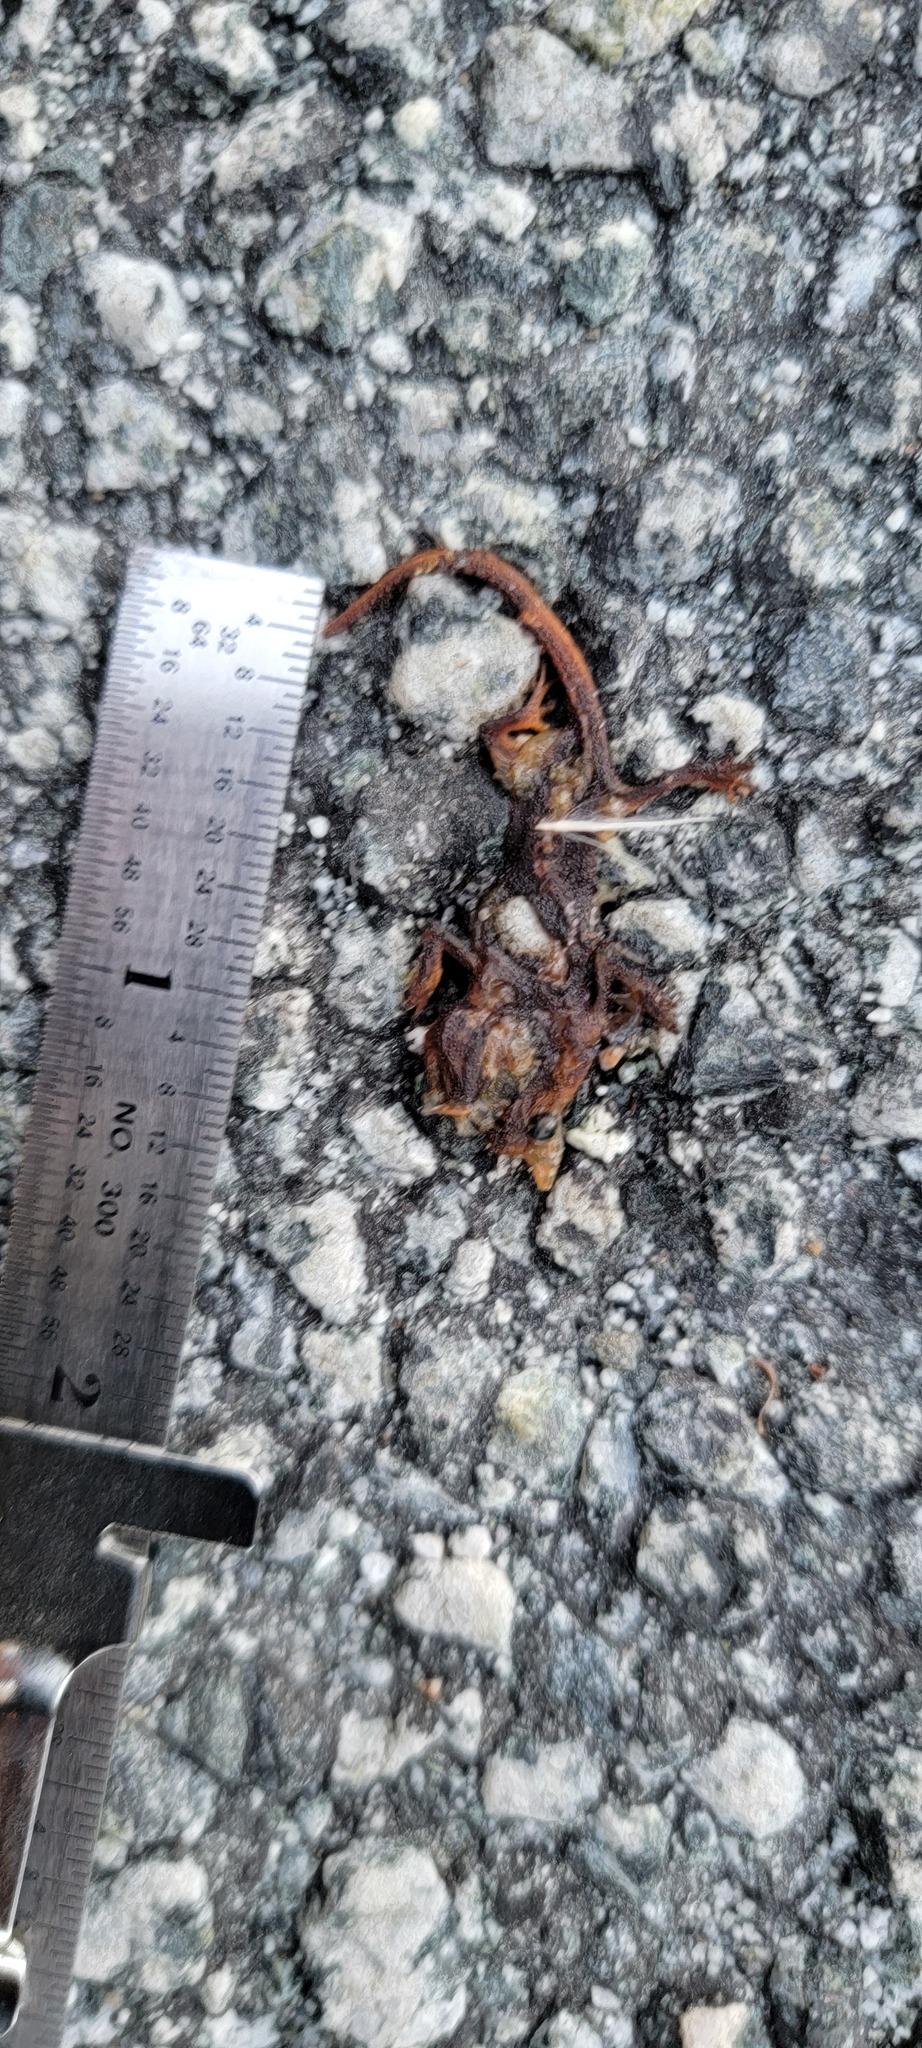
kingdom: Animalia
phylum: Chordata
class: Amphibia
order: Caudata
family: Salamandridae
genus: Taricha
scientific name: Taricha
